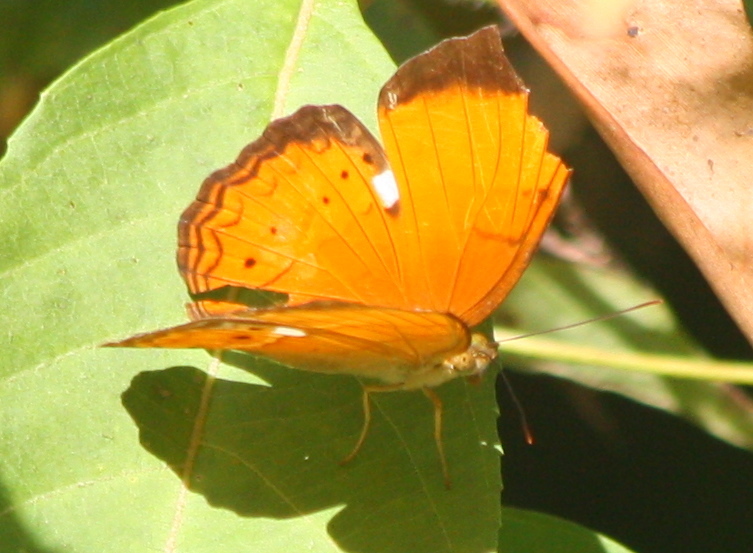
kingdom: Animalia
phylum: Arthropoda
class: Insecta
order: Lepidoptera
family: Nymphalidae
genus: Cirrochroa
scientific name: Cirrochroa malaya
